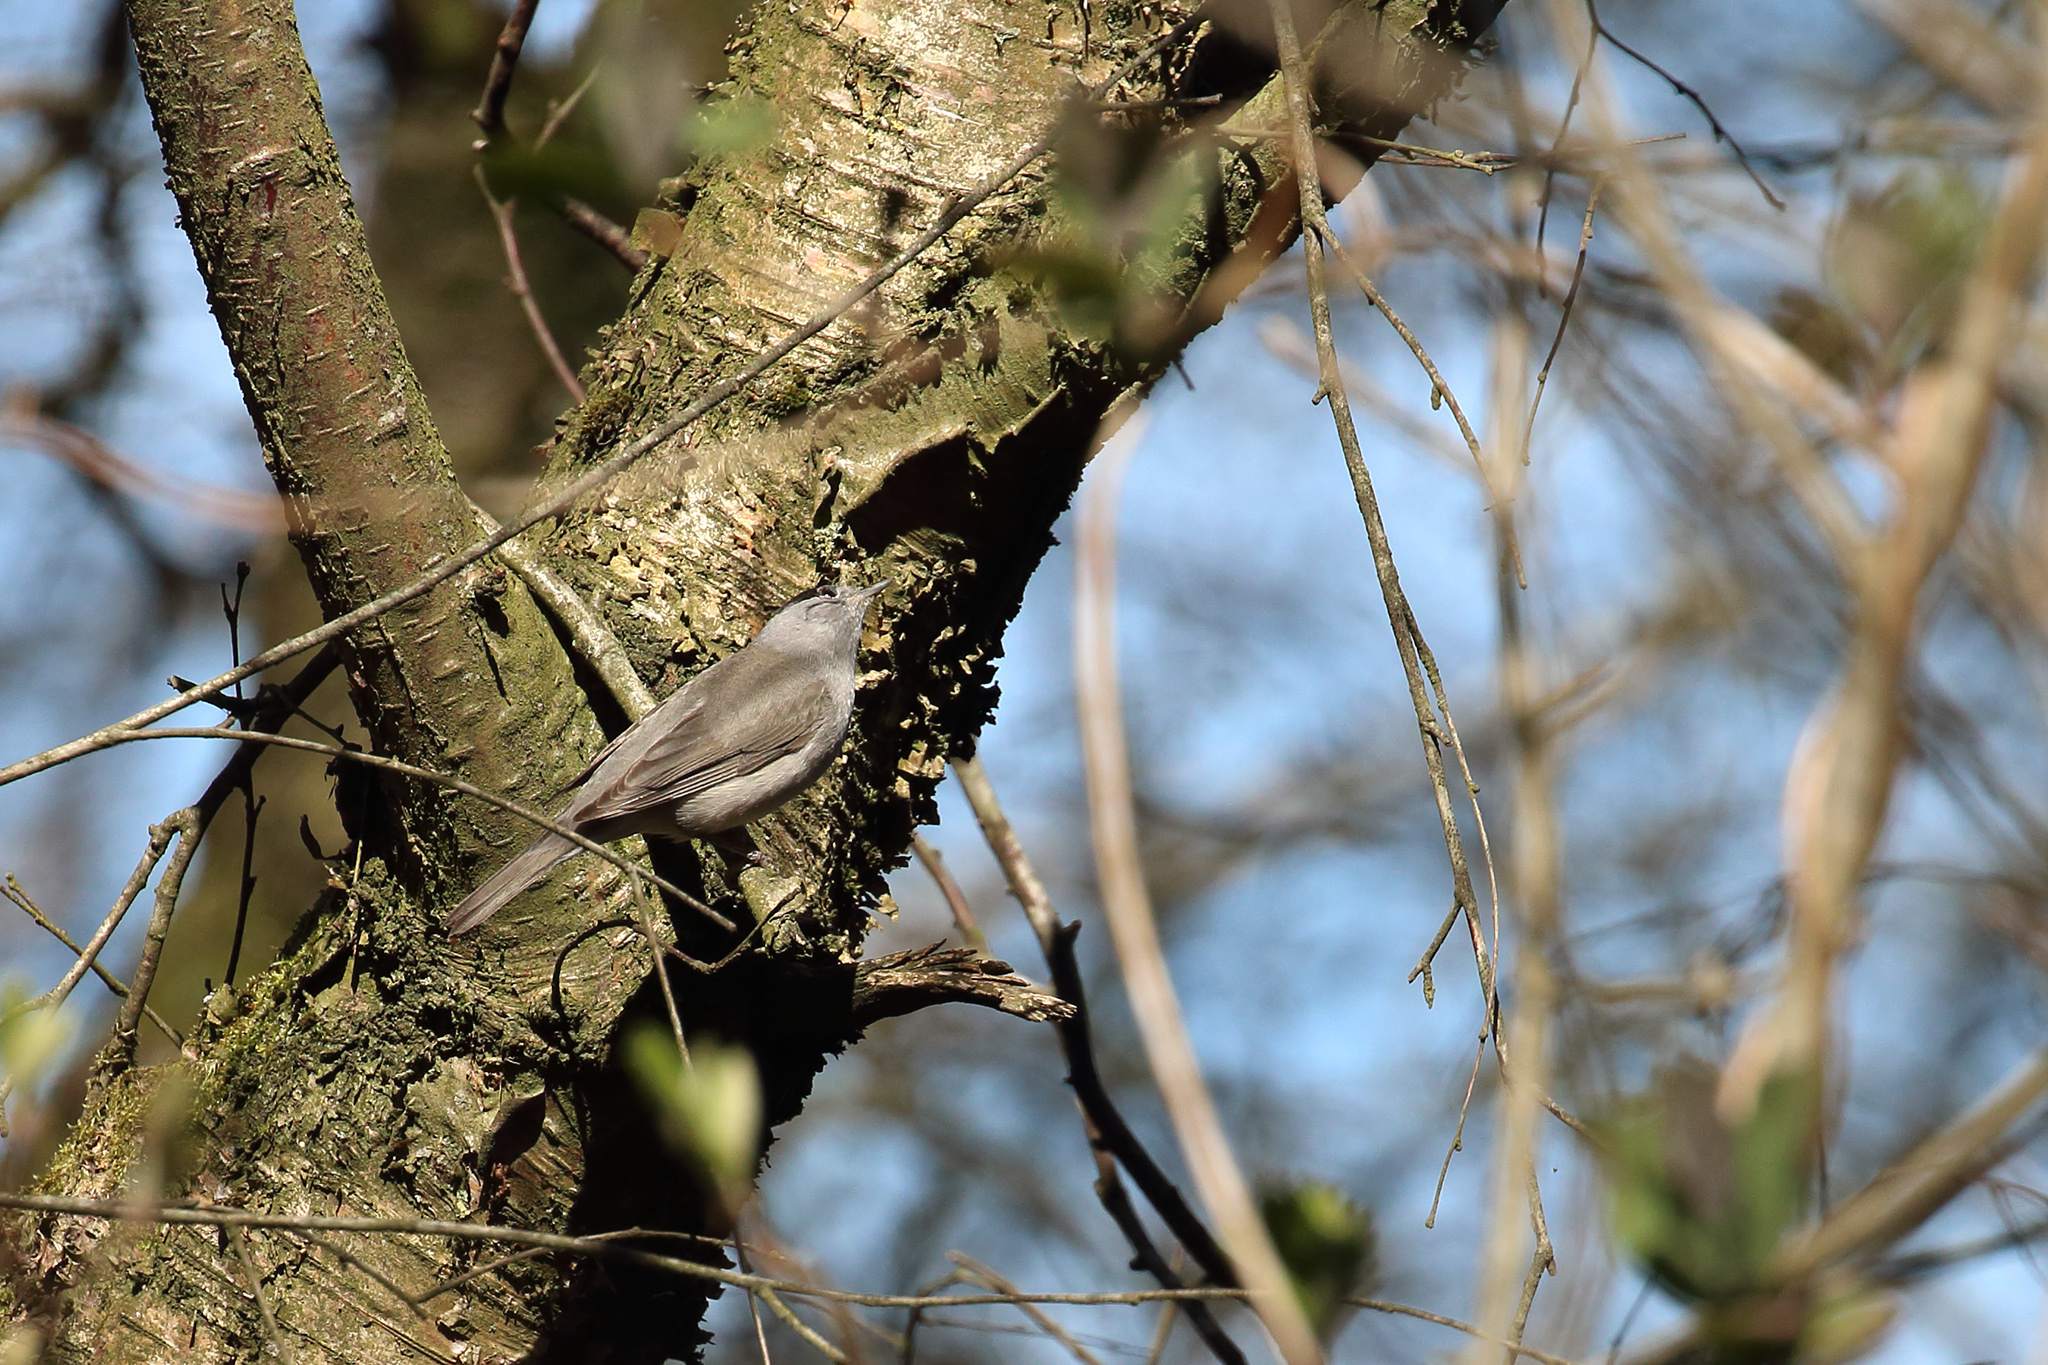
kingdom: Animalia
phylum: Chordata
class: Aves
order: Passeriformes
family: Sylviidae
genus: Sylvia
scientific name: Sylvia atricapilla
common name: Eurasian blackcap
